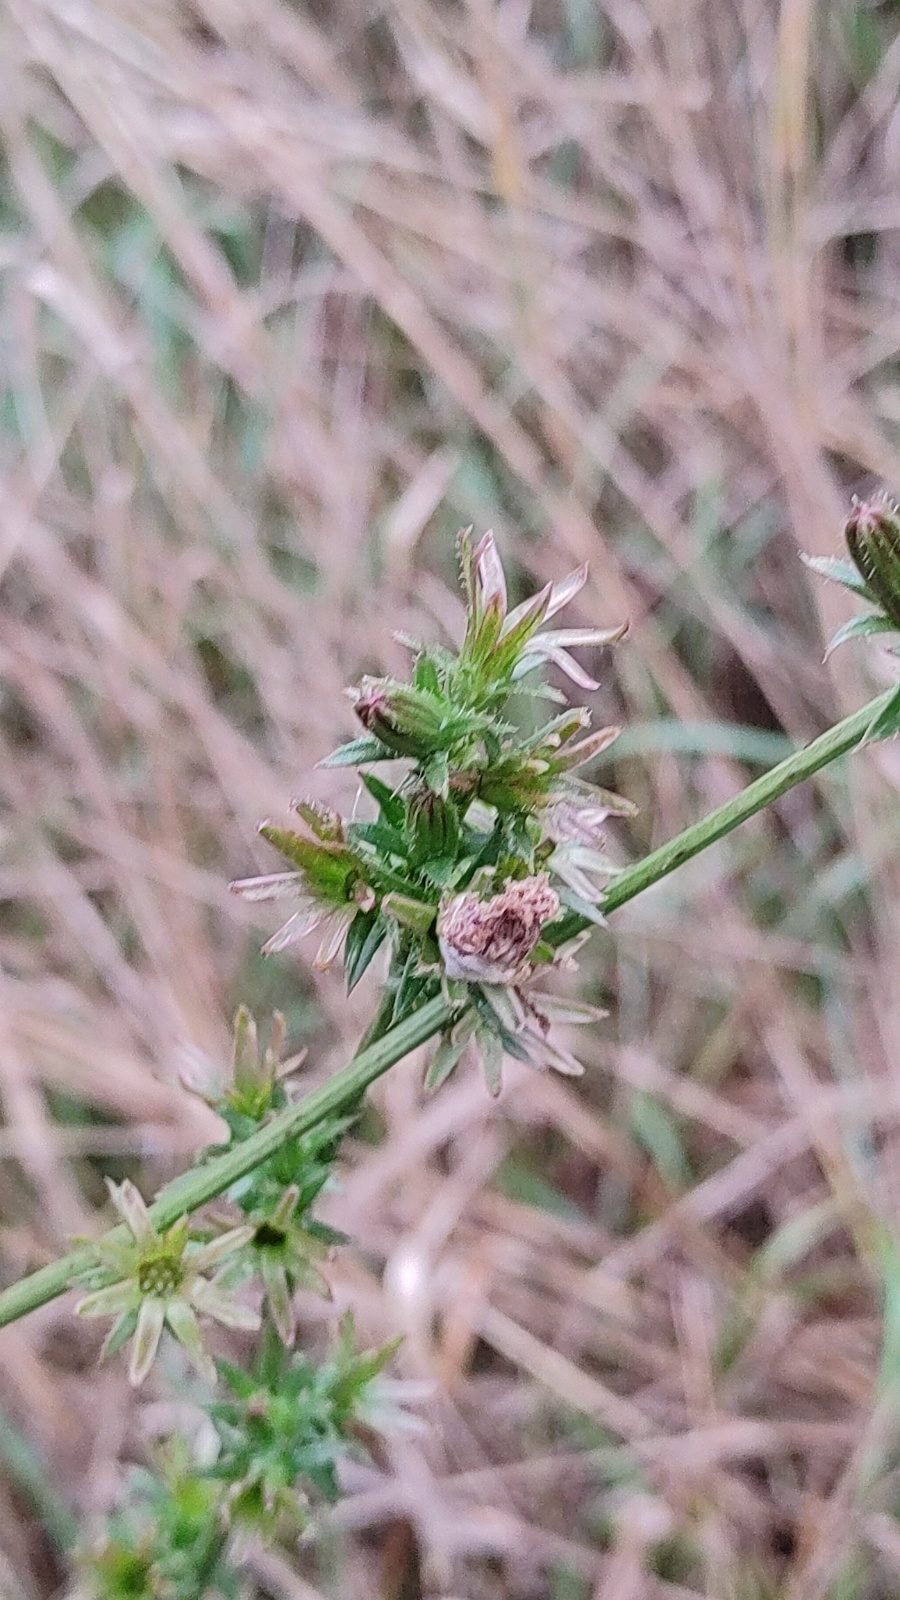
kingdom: Plantae
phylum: Tracheophyta
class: Magnoliopsida
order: Asterales
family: Asteraceae
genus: Cichorium
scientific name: Cichorium intybus
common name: Chicory
